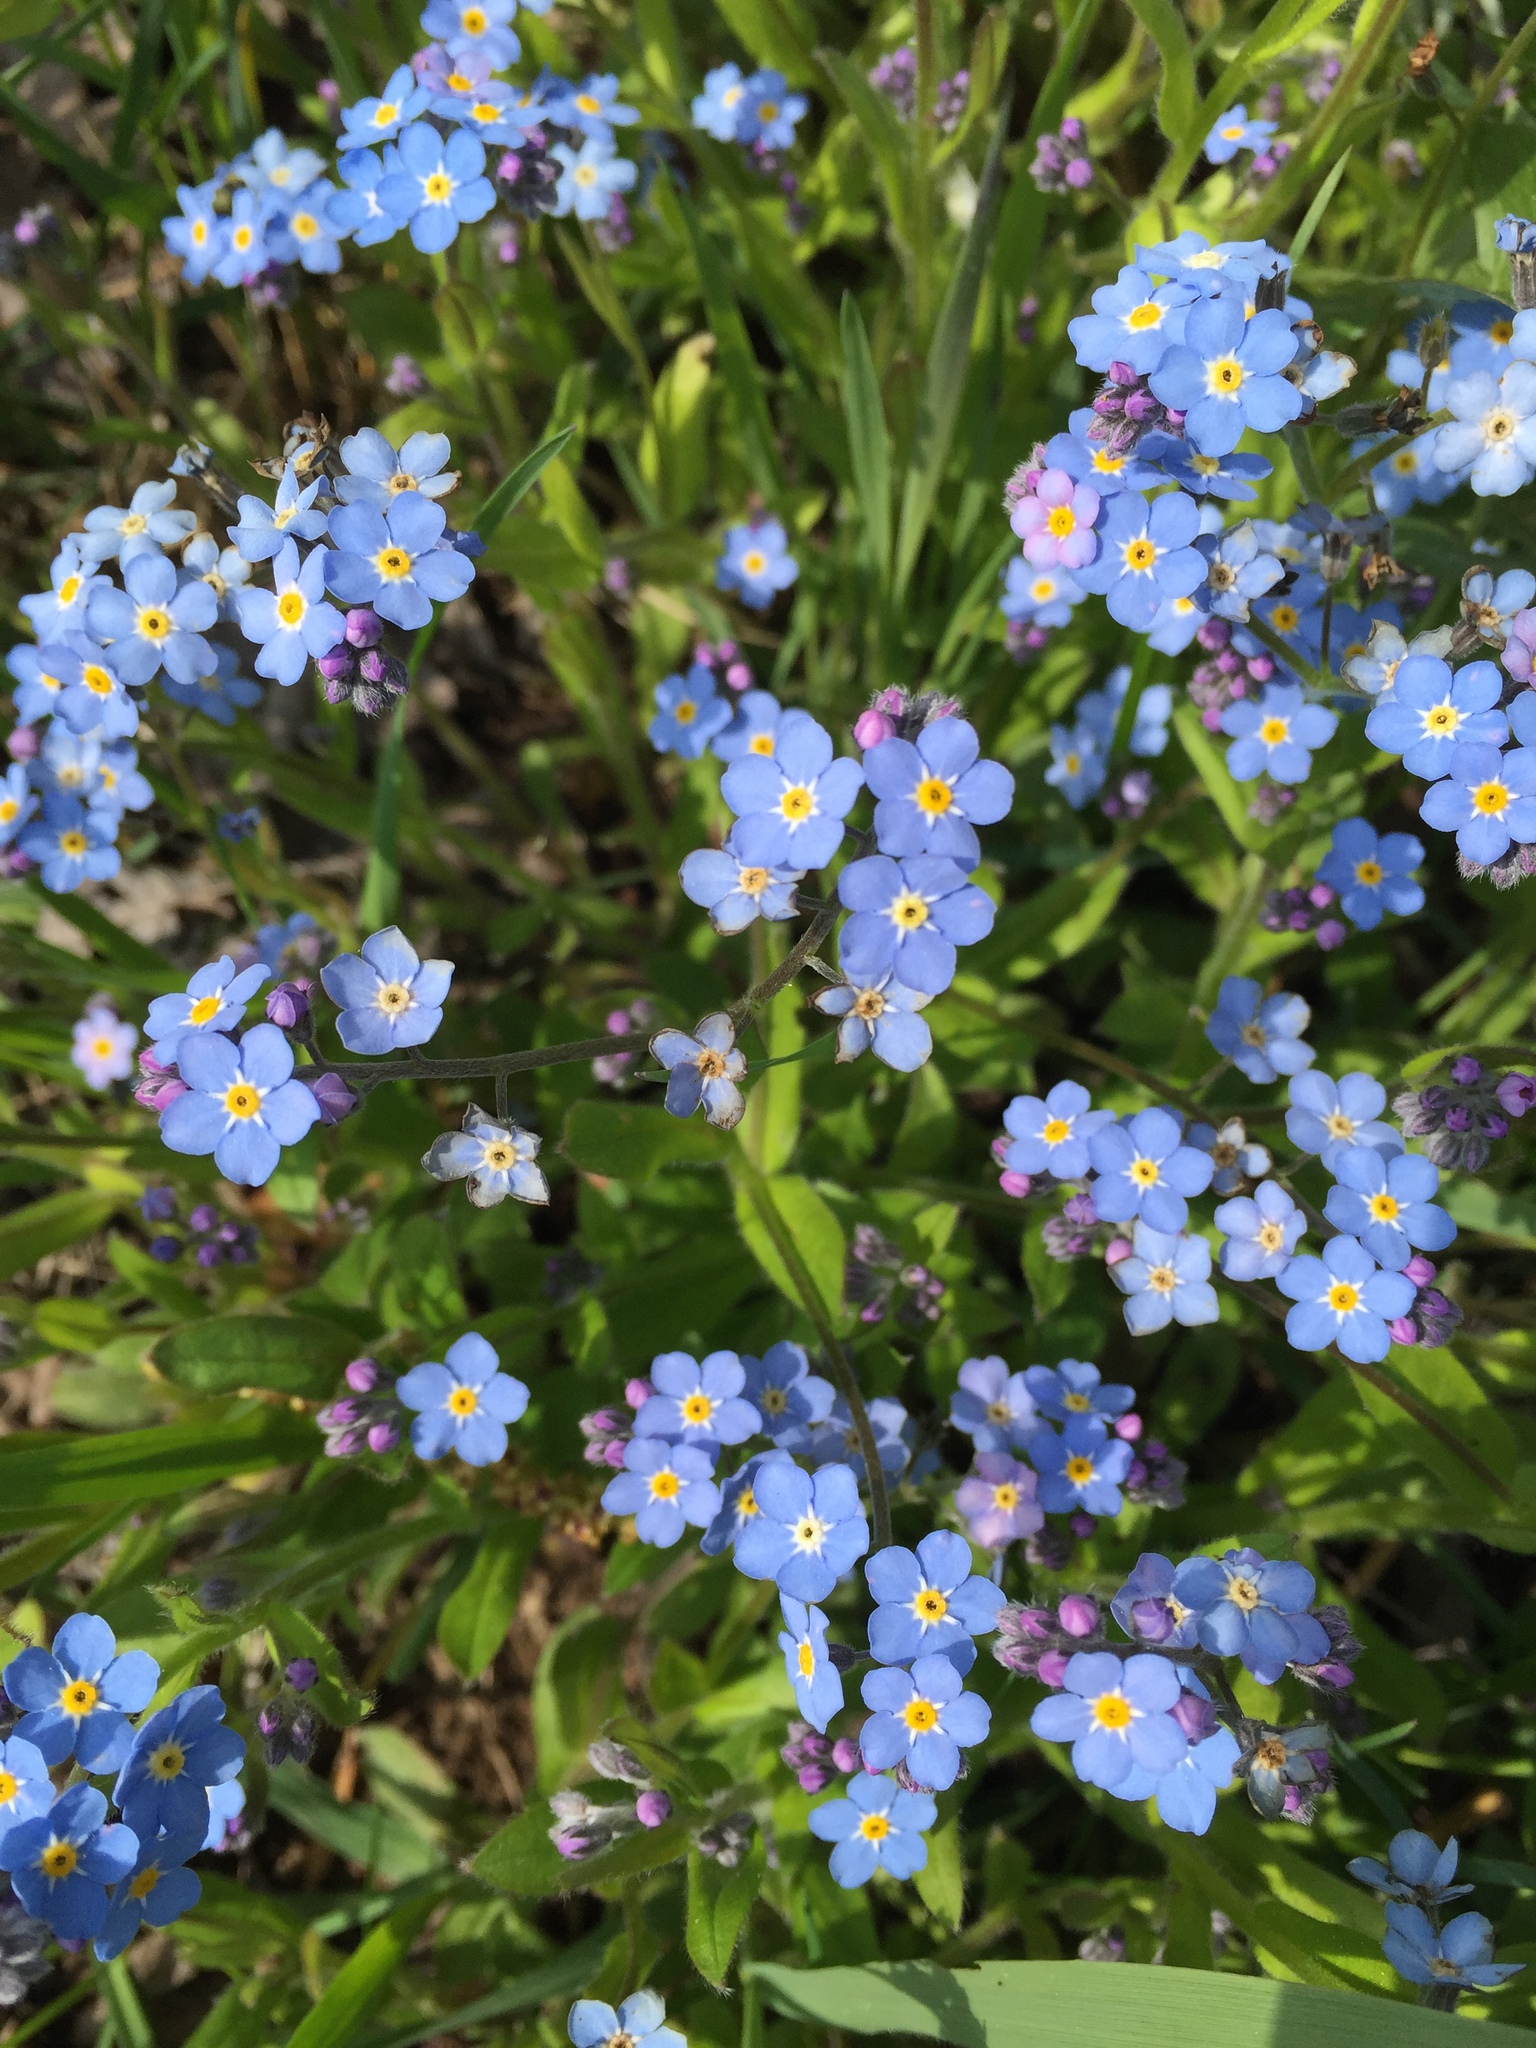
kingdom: Plantae
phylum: Tracheophyta
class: Magnoliopsida
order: Boraginales
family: Boraginaceae
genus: Myosotis
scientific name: Myosotis sylvatica
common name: Wood forget-me-not
